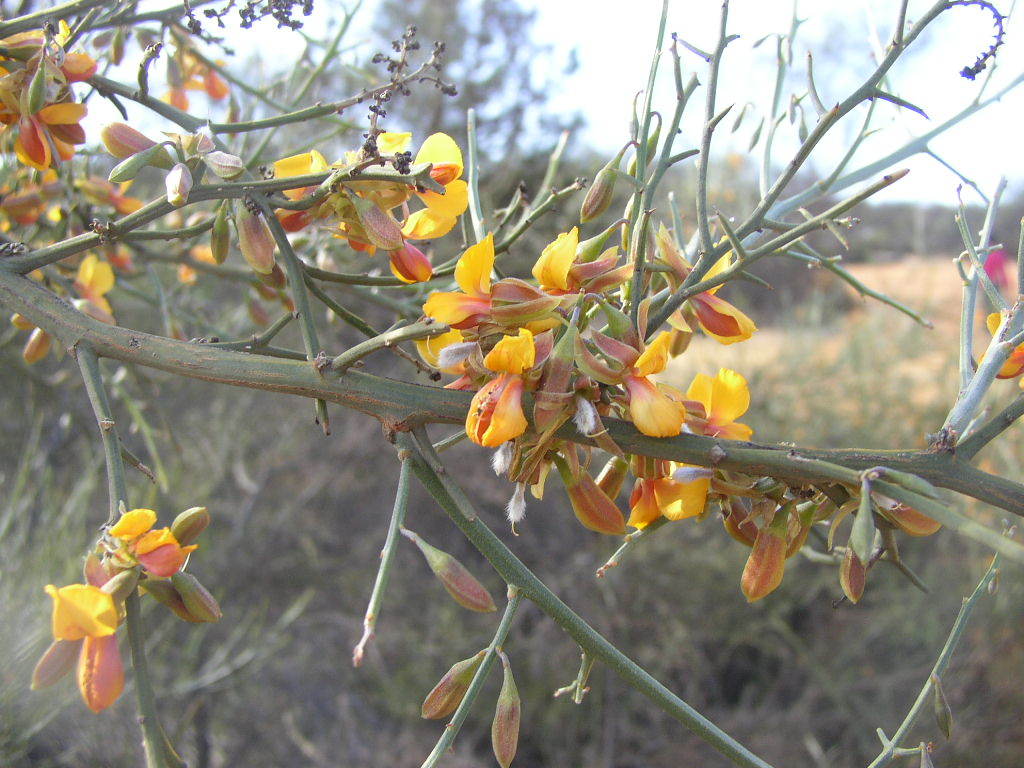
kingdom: Plantae
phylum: Tracheophyta
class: Magnoliopsida
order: Fabales
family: Fabaceae
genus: Jacksonia
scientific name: Jacksonia sternbergiana
